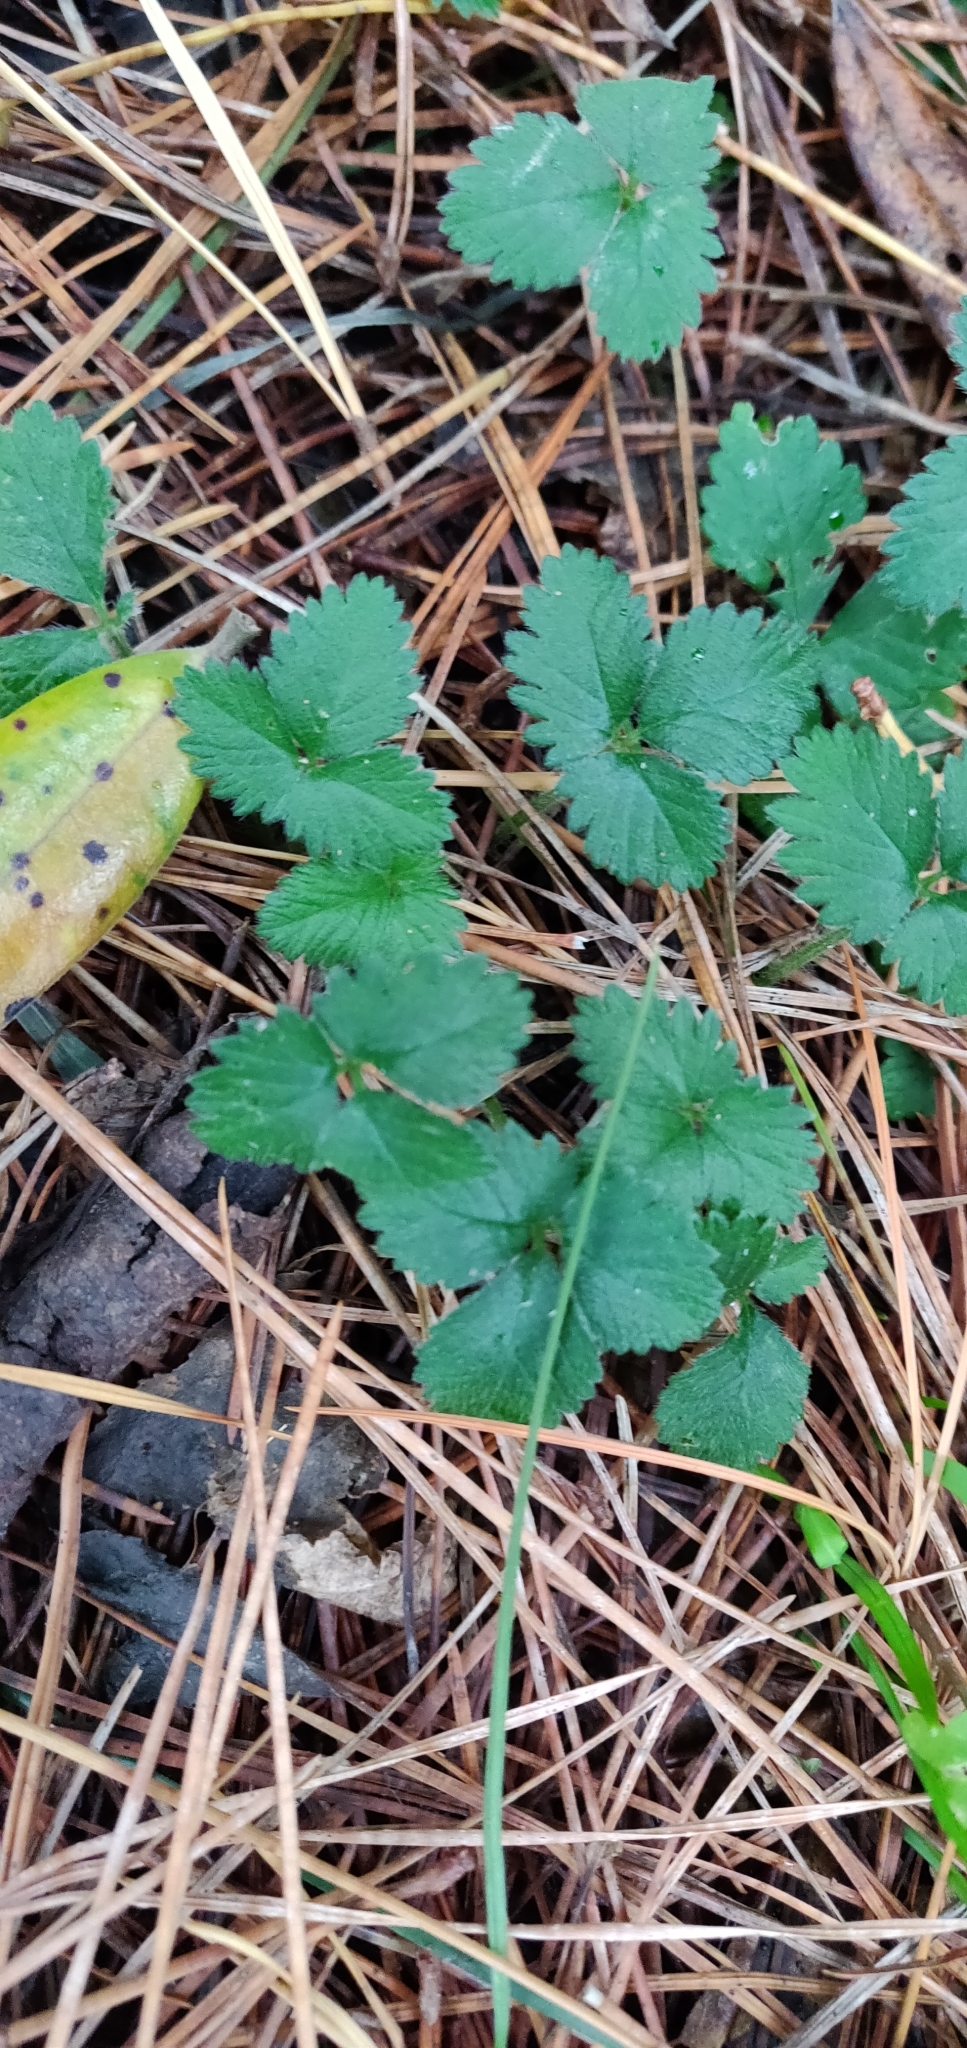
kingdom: Plantae
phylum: Tracheophyta
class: Magnoliopsida
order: Rosales
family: Rosaceae
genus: Potentilla
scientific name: Potentilla indica
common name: Yellow-flowered strawberry
